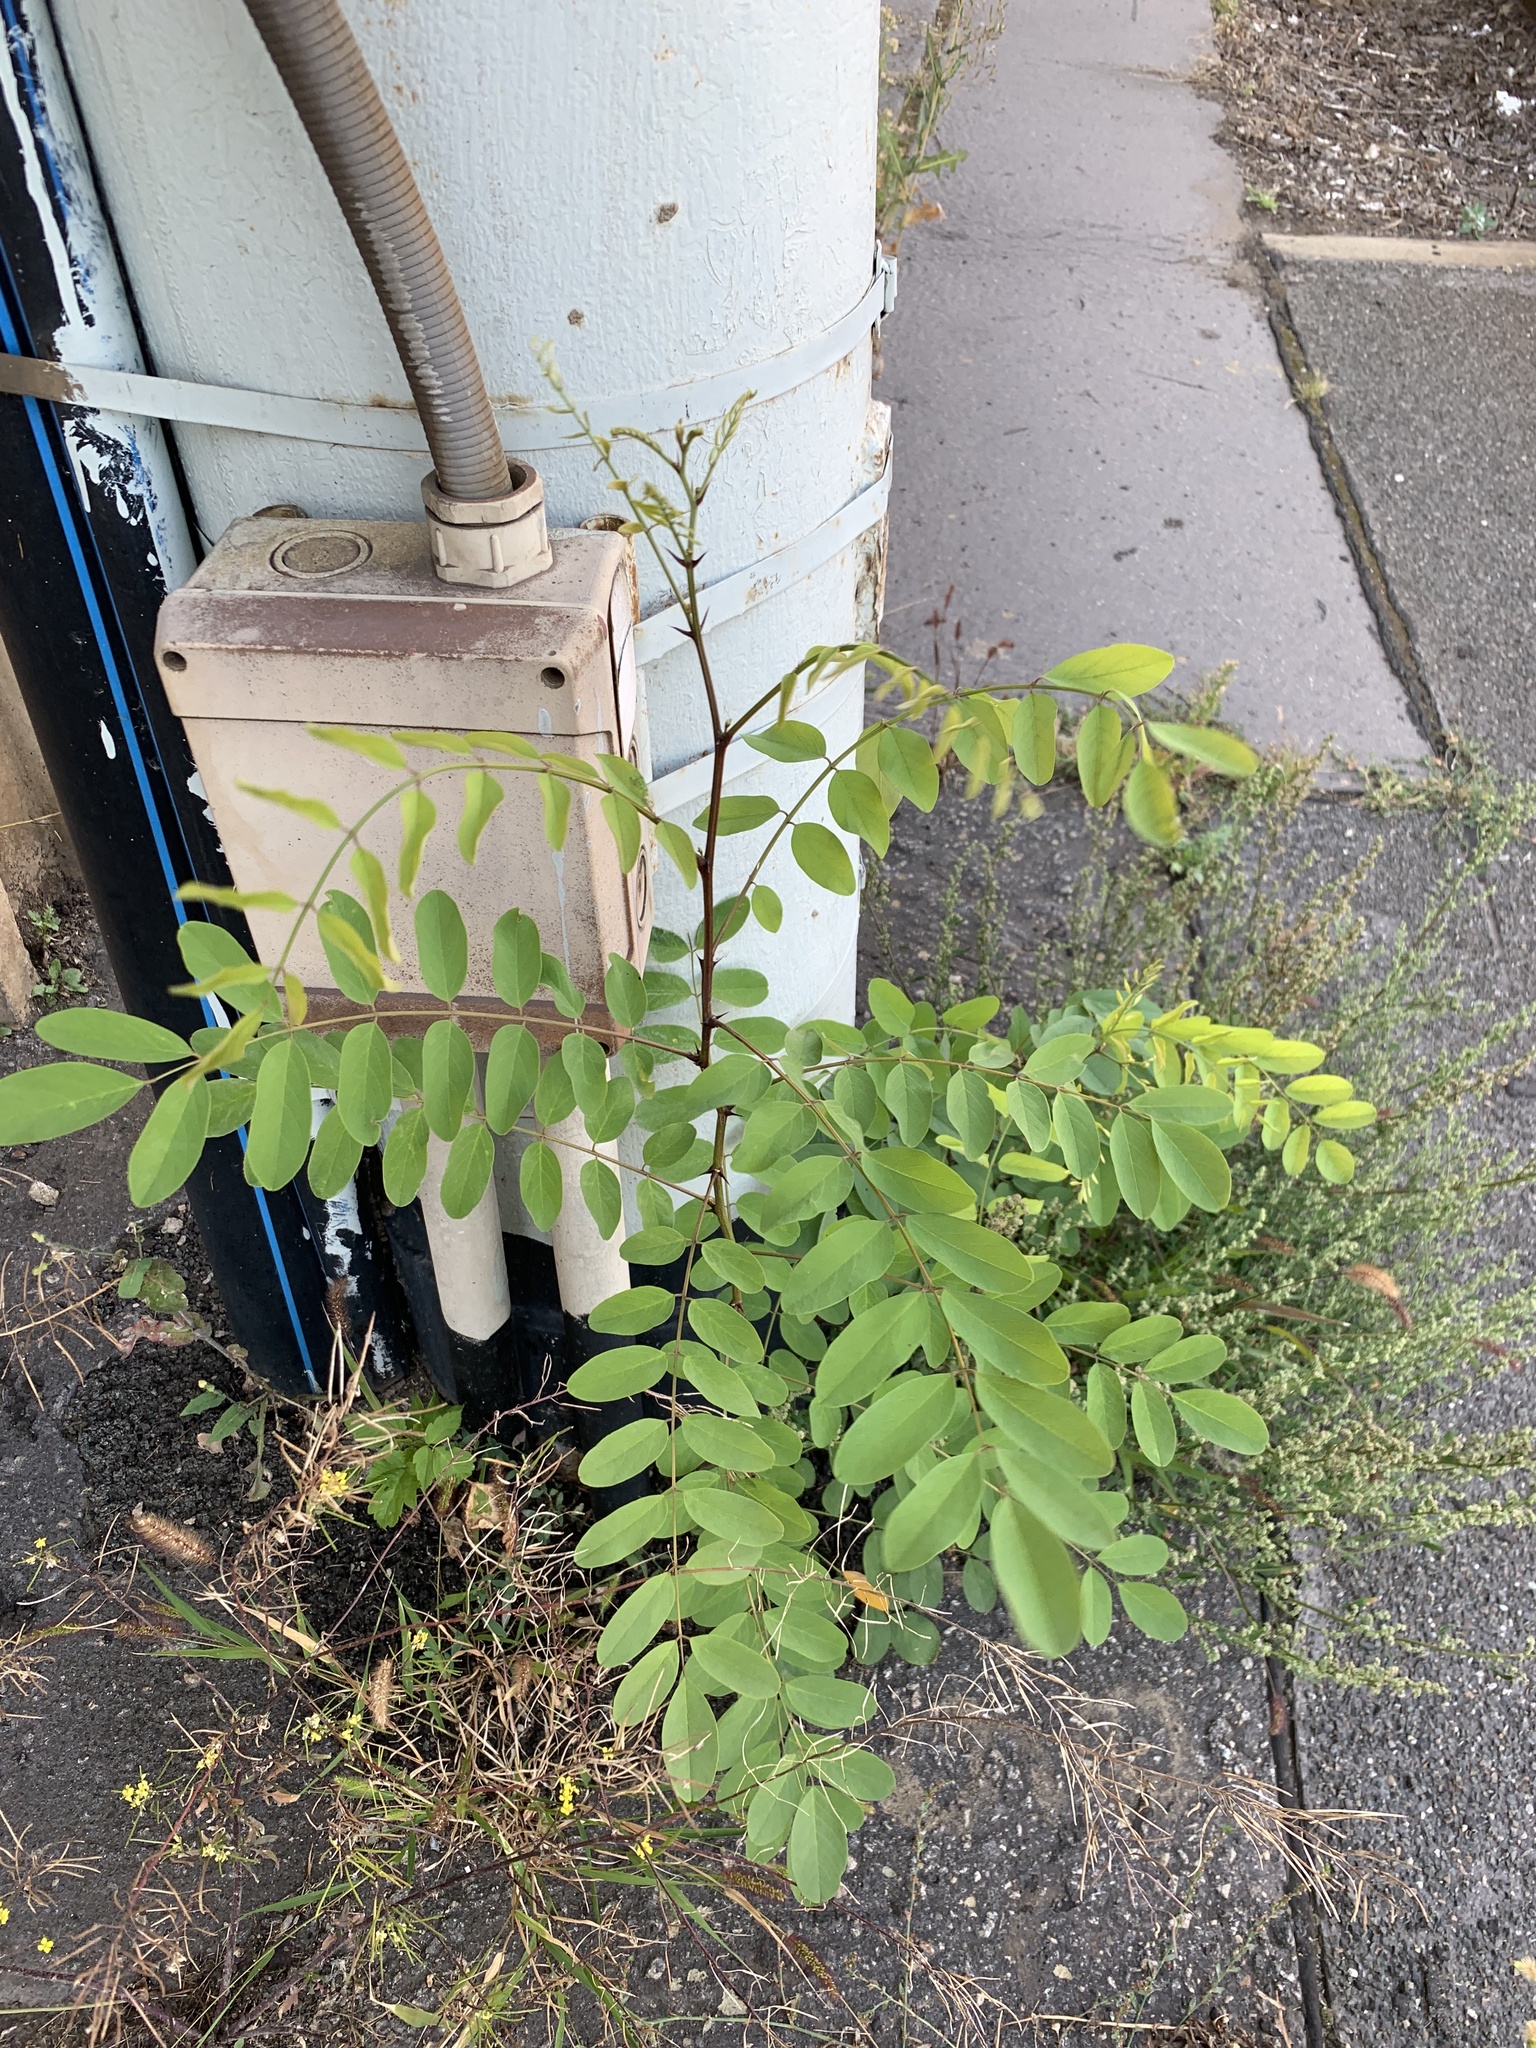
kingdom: Plantae
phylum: Tracheophyta
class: Magnoliopsida
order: Fabales
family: Fabaceae
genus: Robinia
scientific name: Robinia pseudoacacia
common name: Black locust
